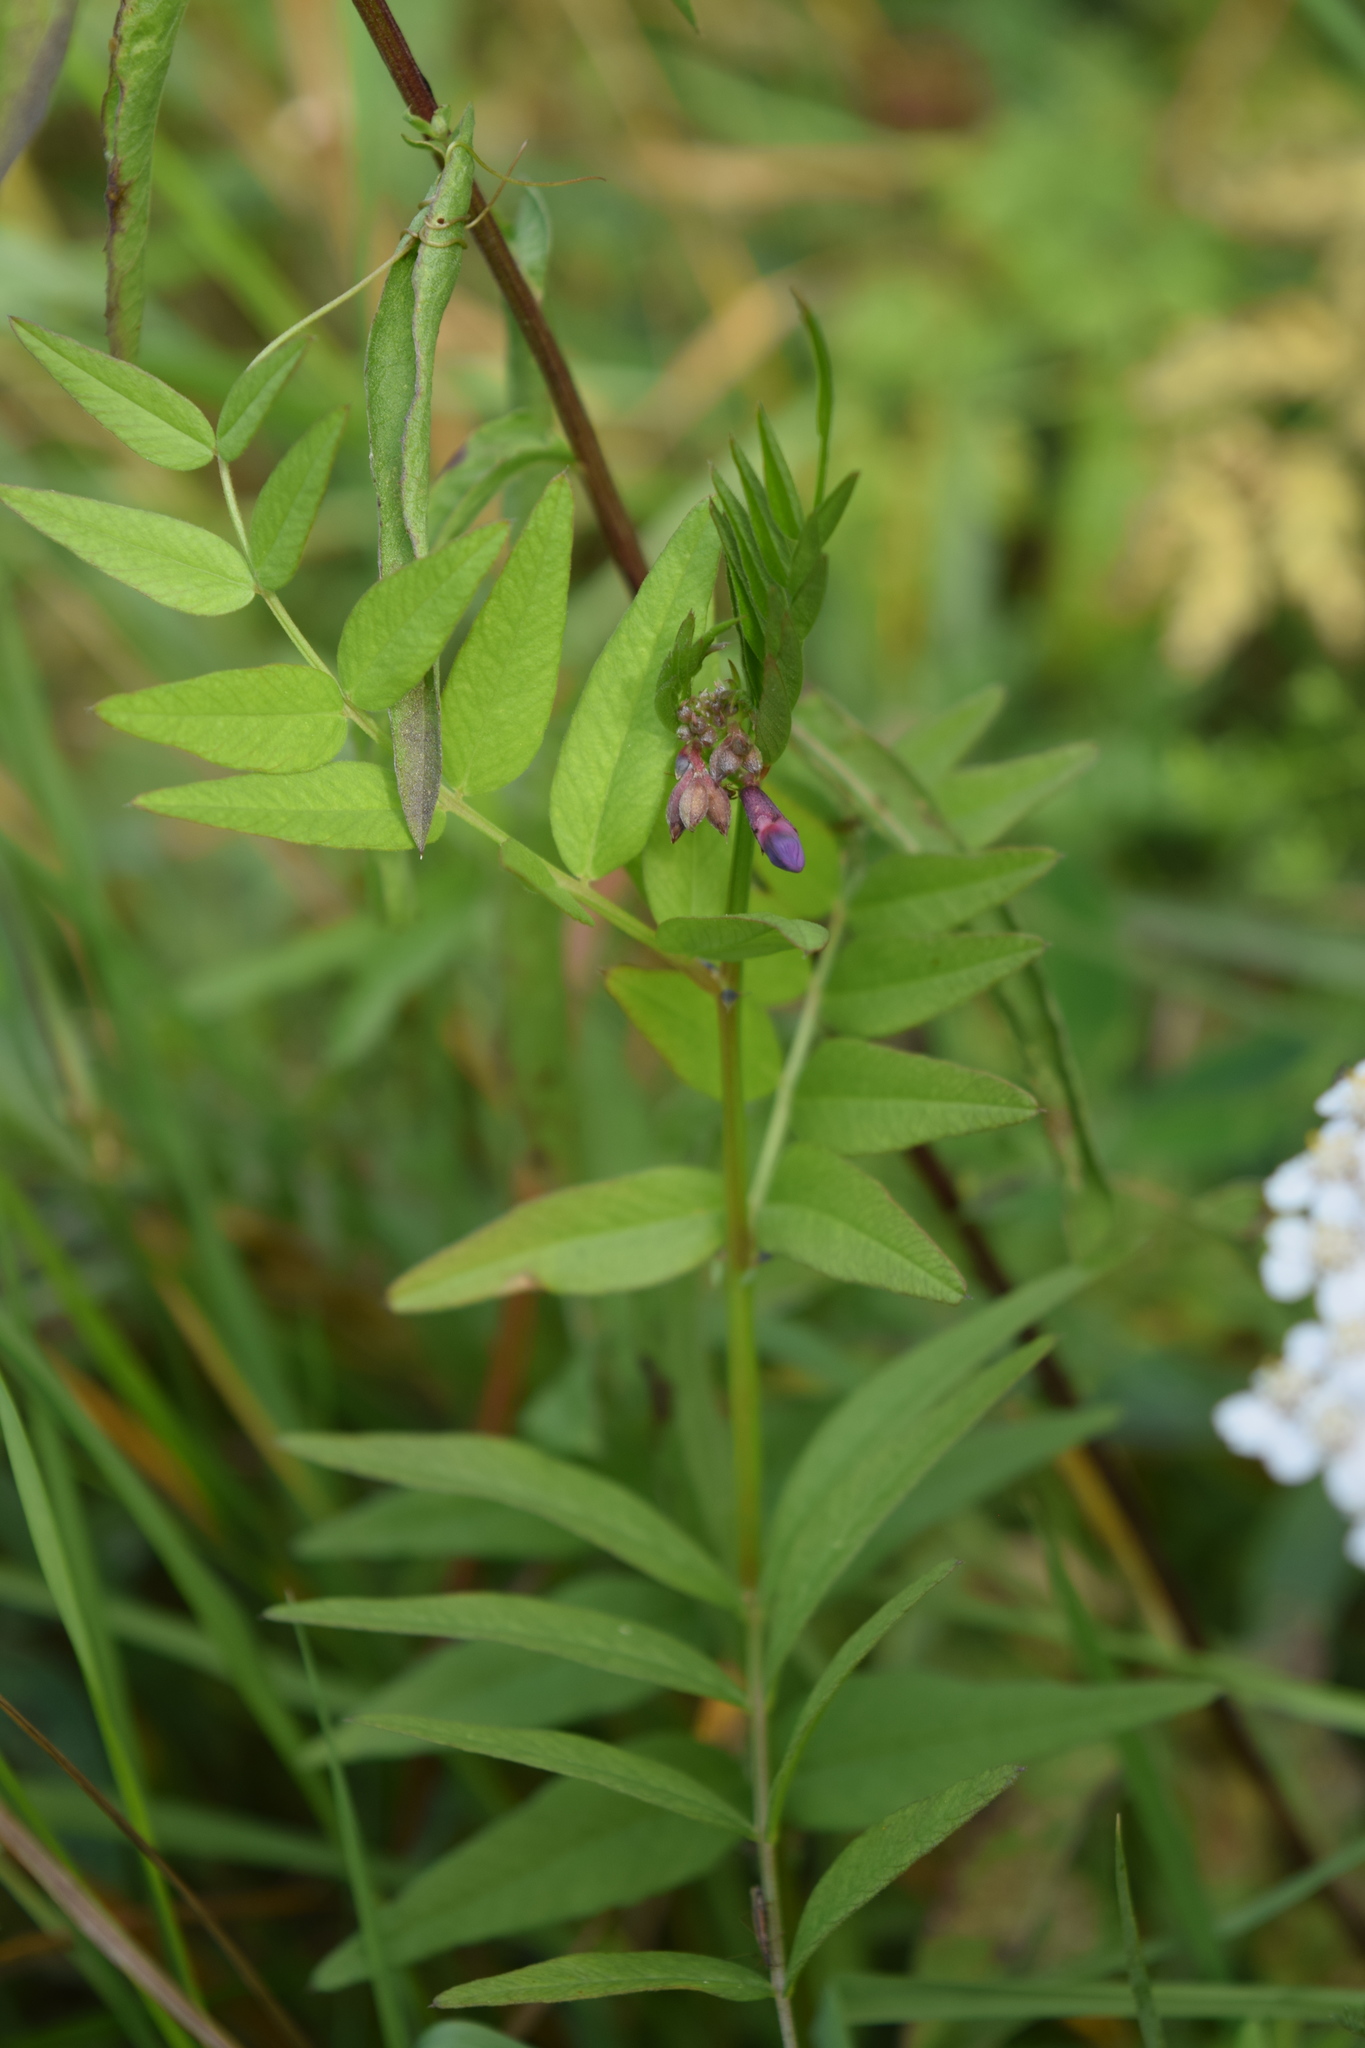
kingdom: Plantae
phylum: Tracheophyta
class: Magnoliopsida
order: Fabales
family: Fabaceae
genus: Vicia
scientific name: Vicia sepium
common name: Bush vetch
